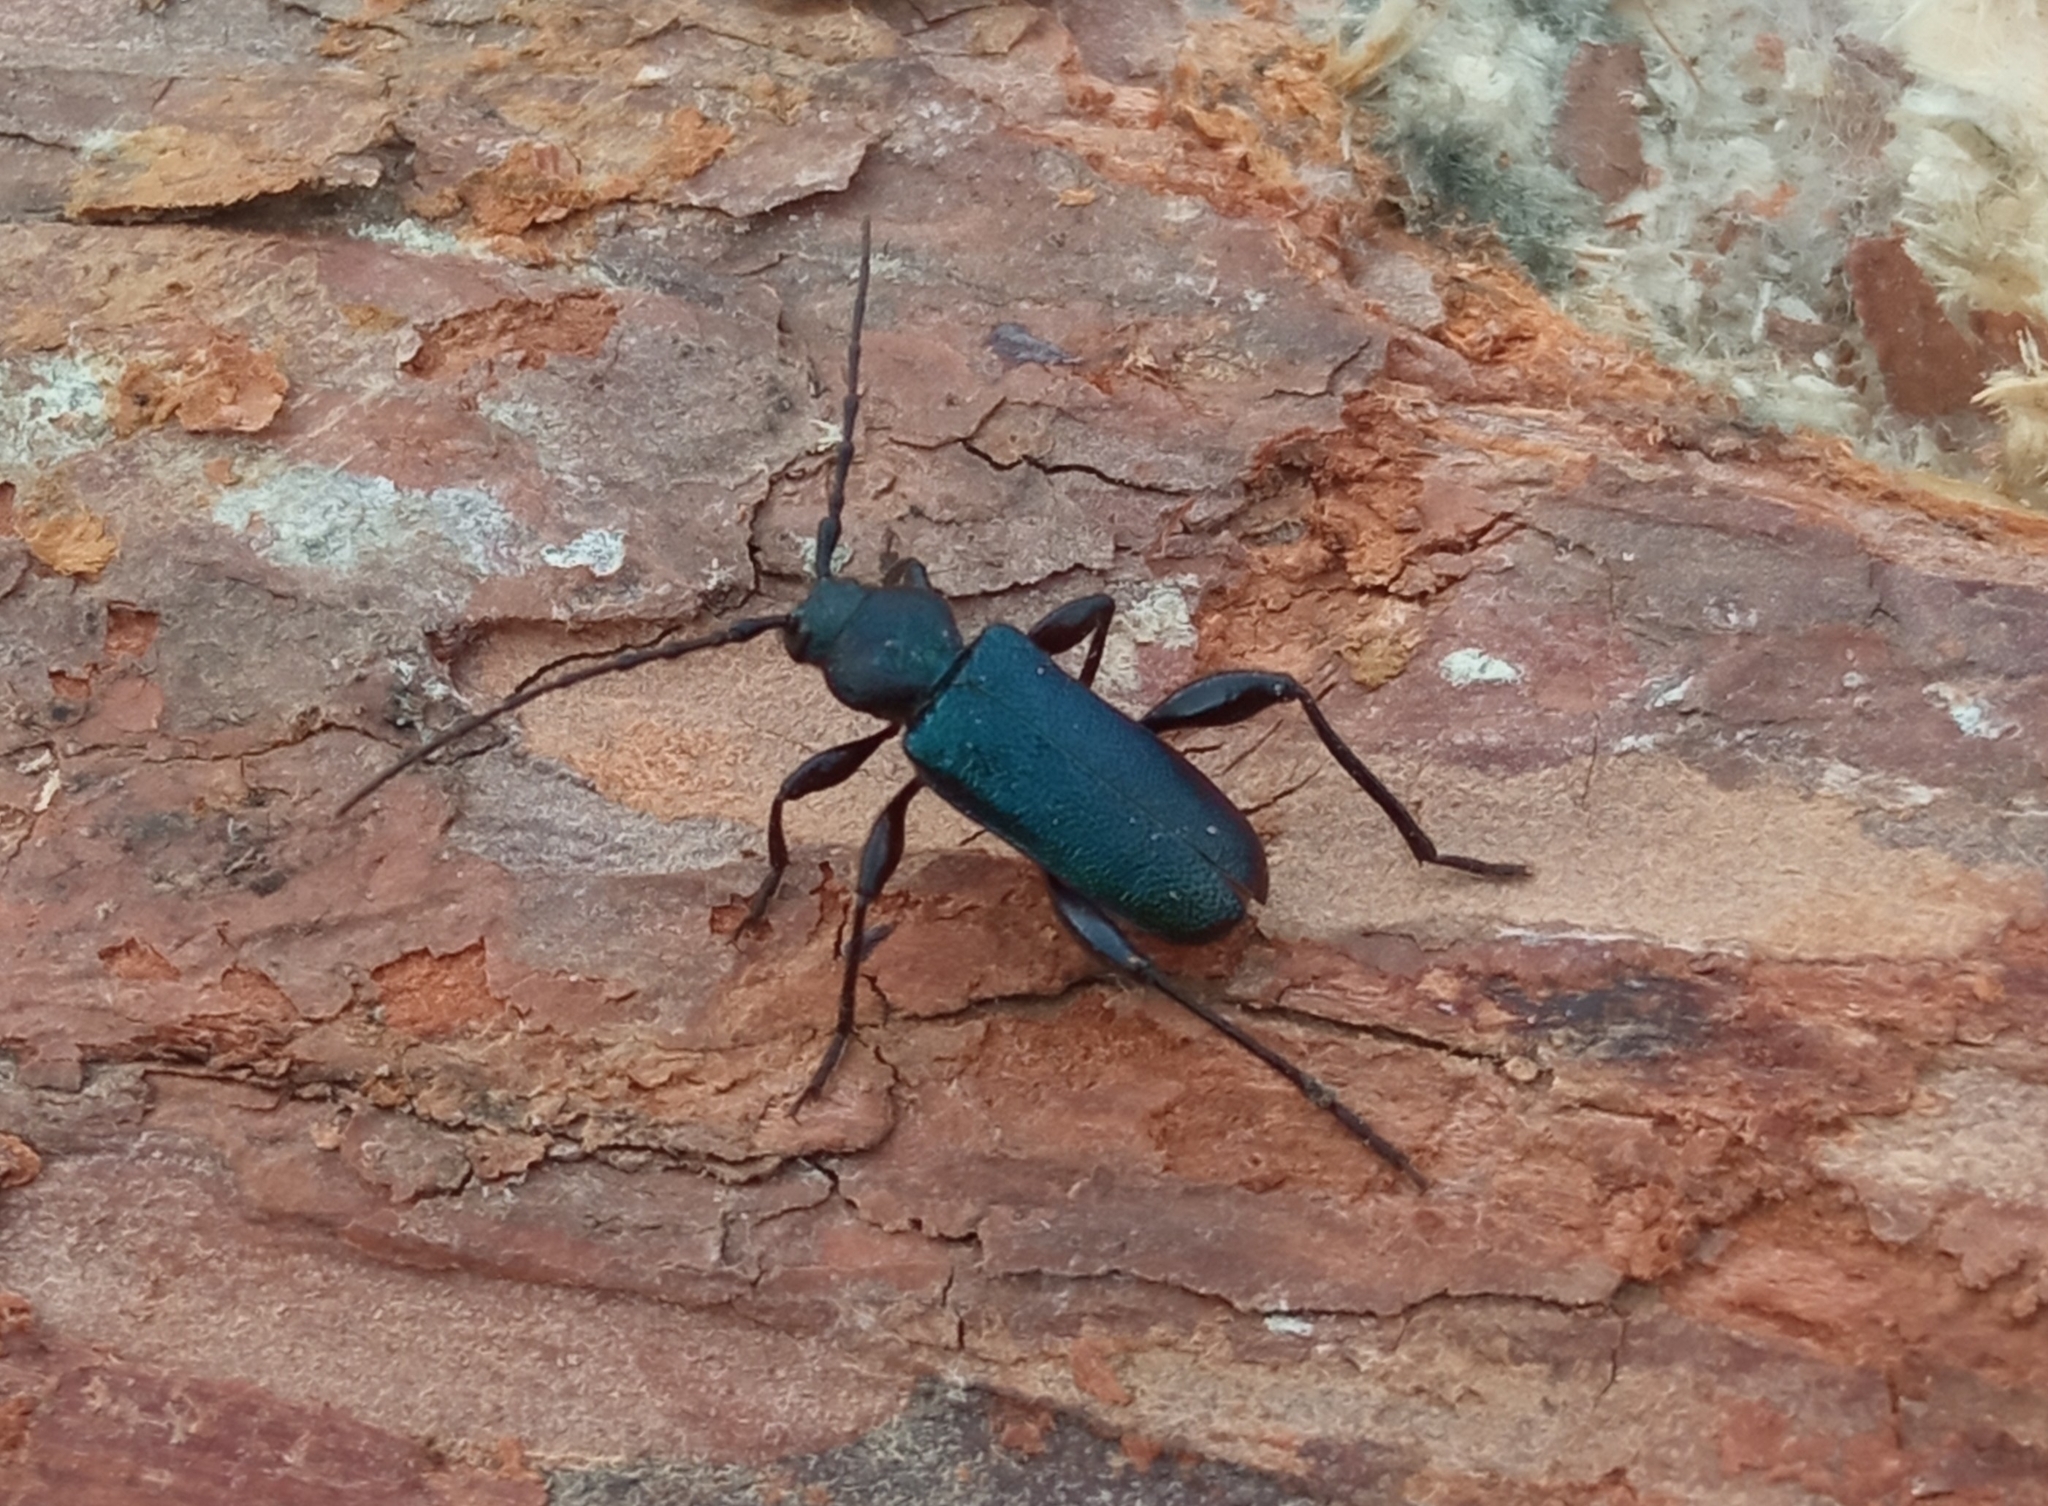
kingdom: Animalia
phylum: Arthropoda
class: Insecta
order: Coleoptera
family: Cerambycidae
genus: Callidium
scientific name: Callidium violaceum
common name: Violet tanbark beetle
